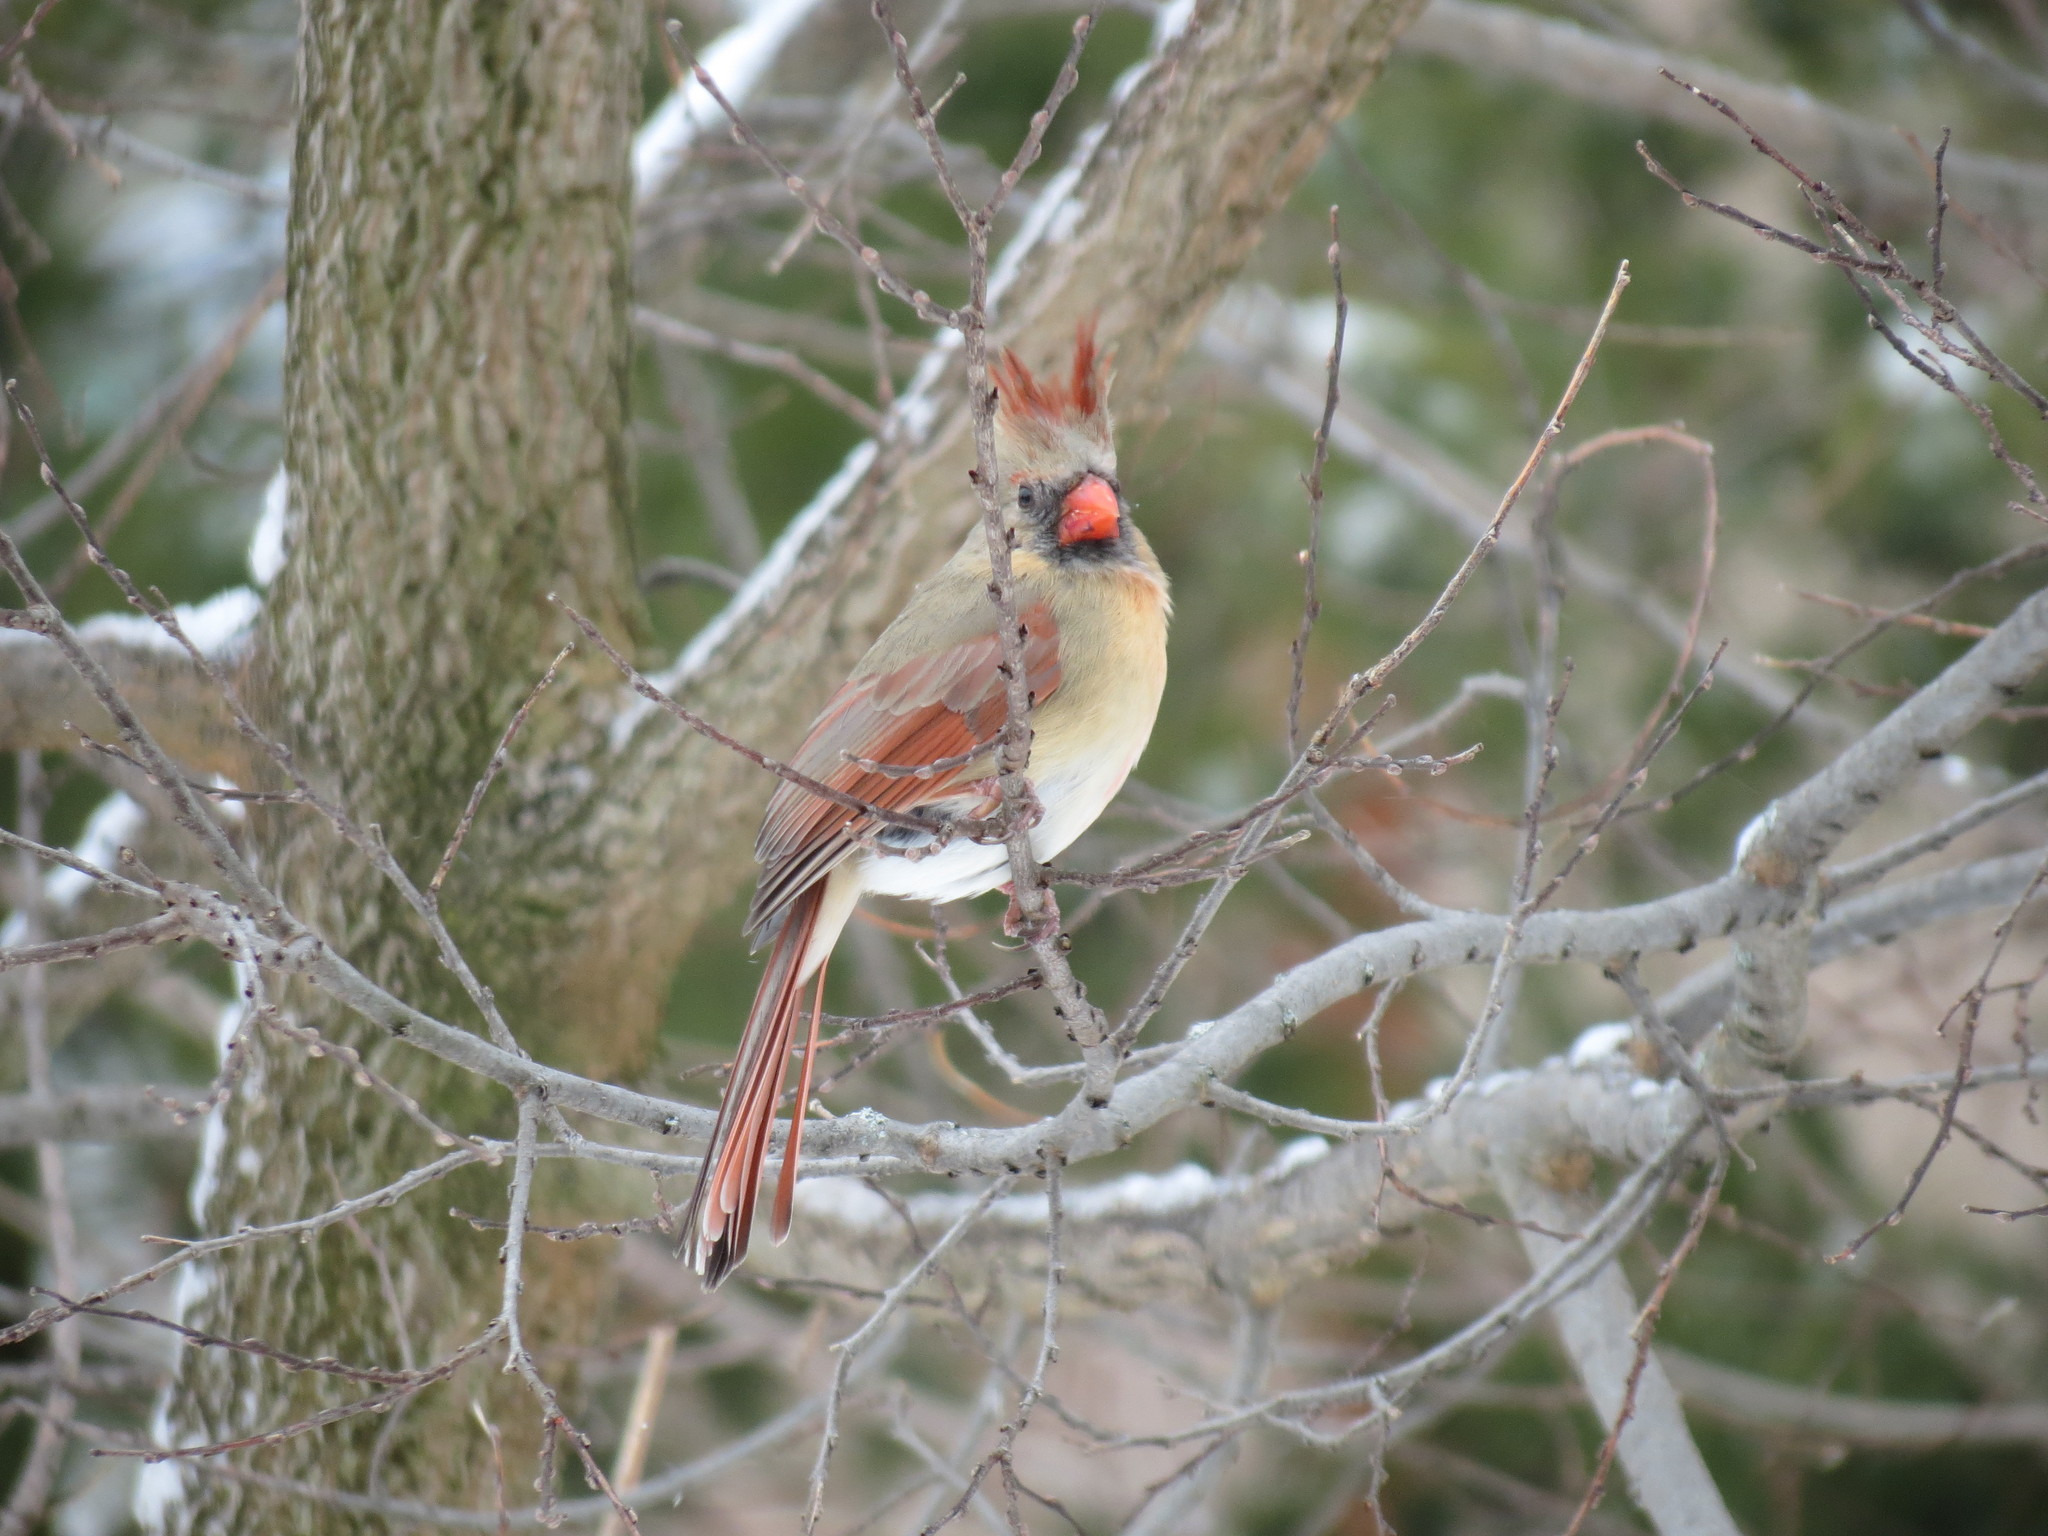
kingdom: Animalia
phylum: Chordata
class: Aves
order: Passeriformes
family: Cardinalidae
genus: Cardinalis
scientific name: Cardinalis cardinalis
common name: Northern cardinal
